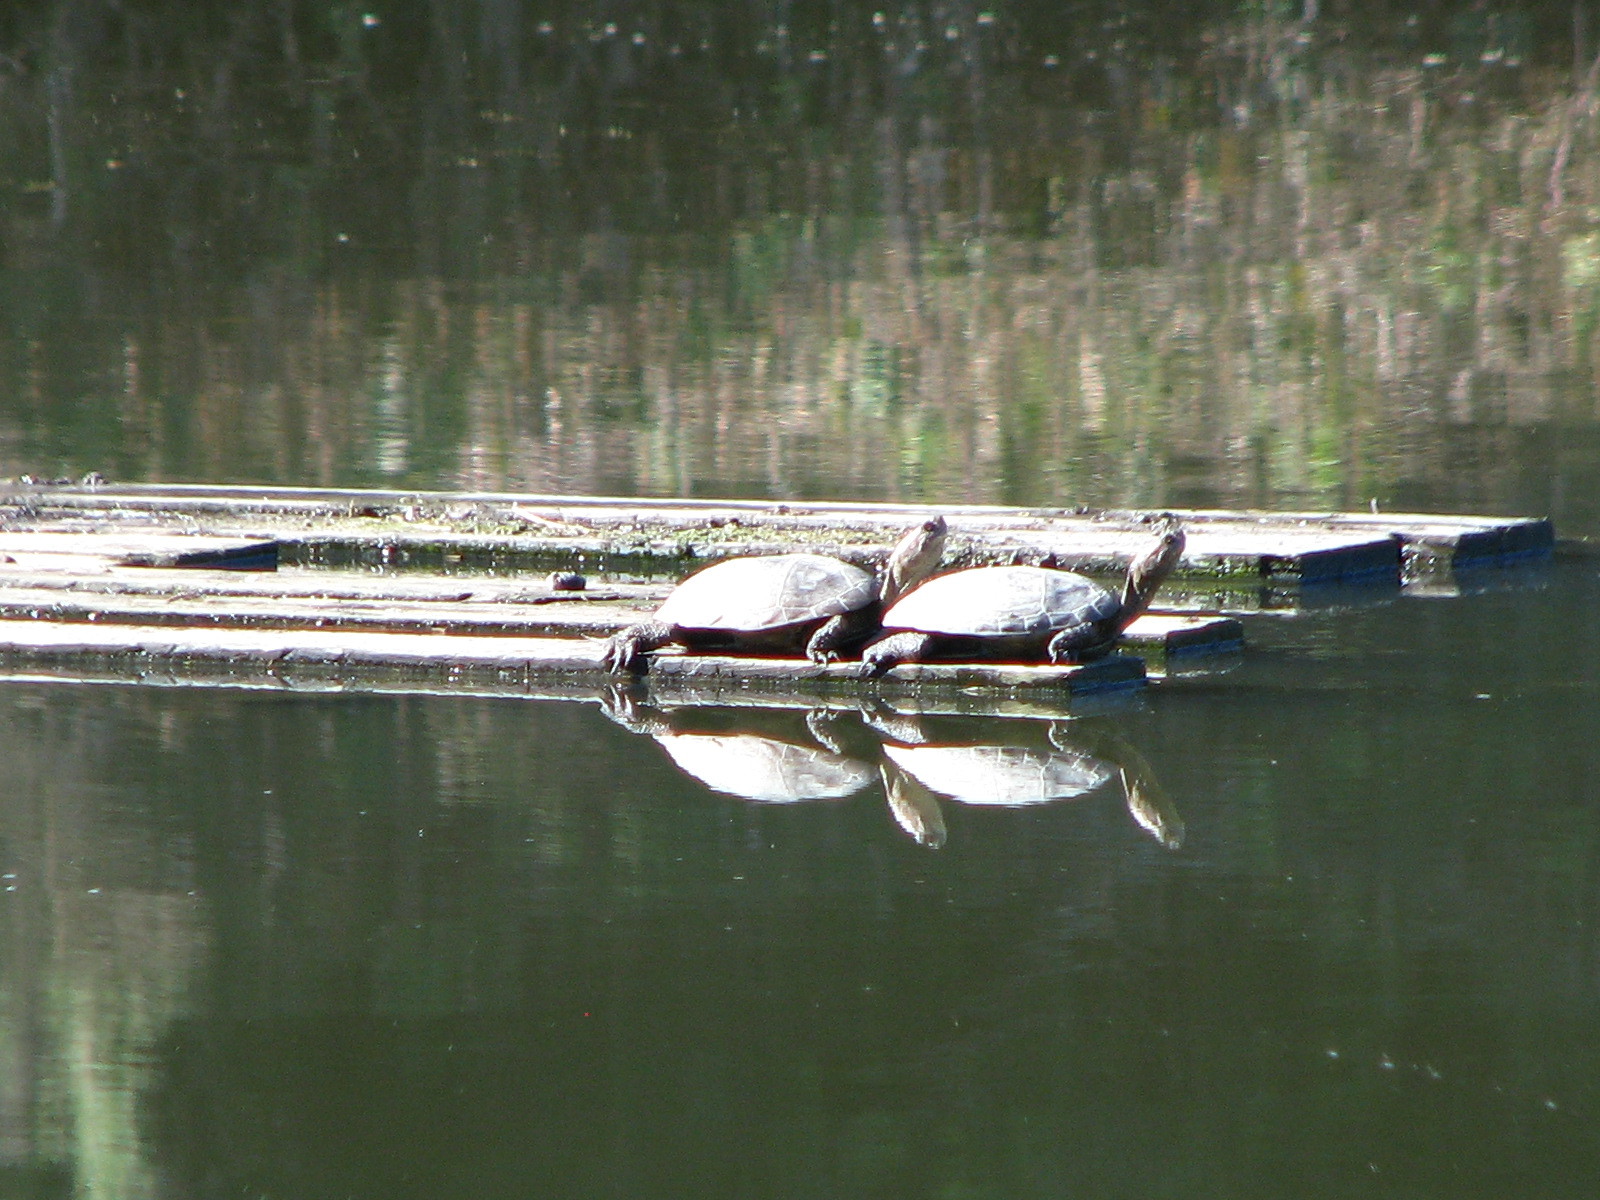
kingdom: Animalia
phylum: Chordata
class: Testudines
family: Emydidae
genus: Actinemys
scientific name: Actinemys marmorata
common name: Western pond turtle
